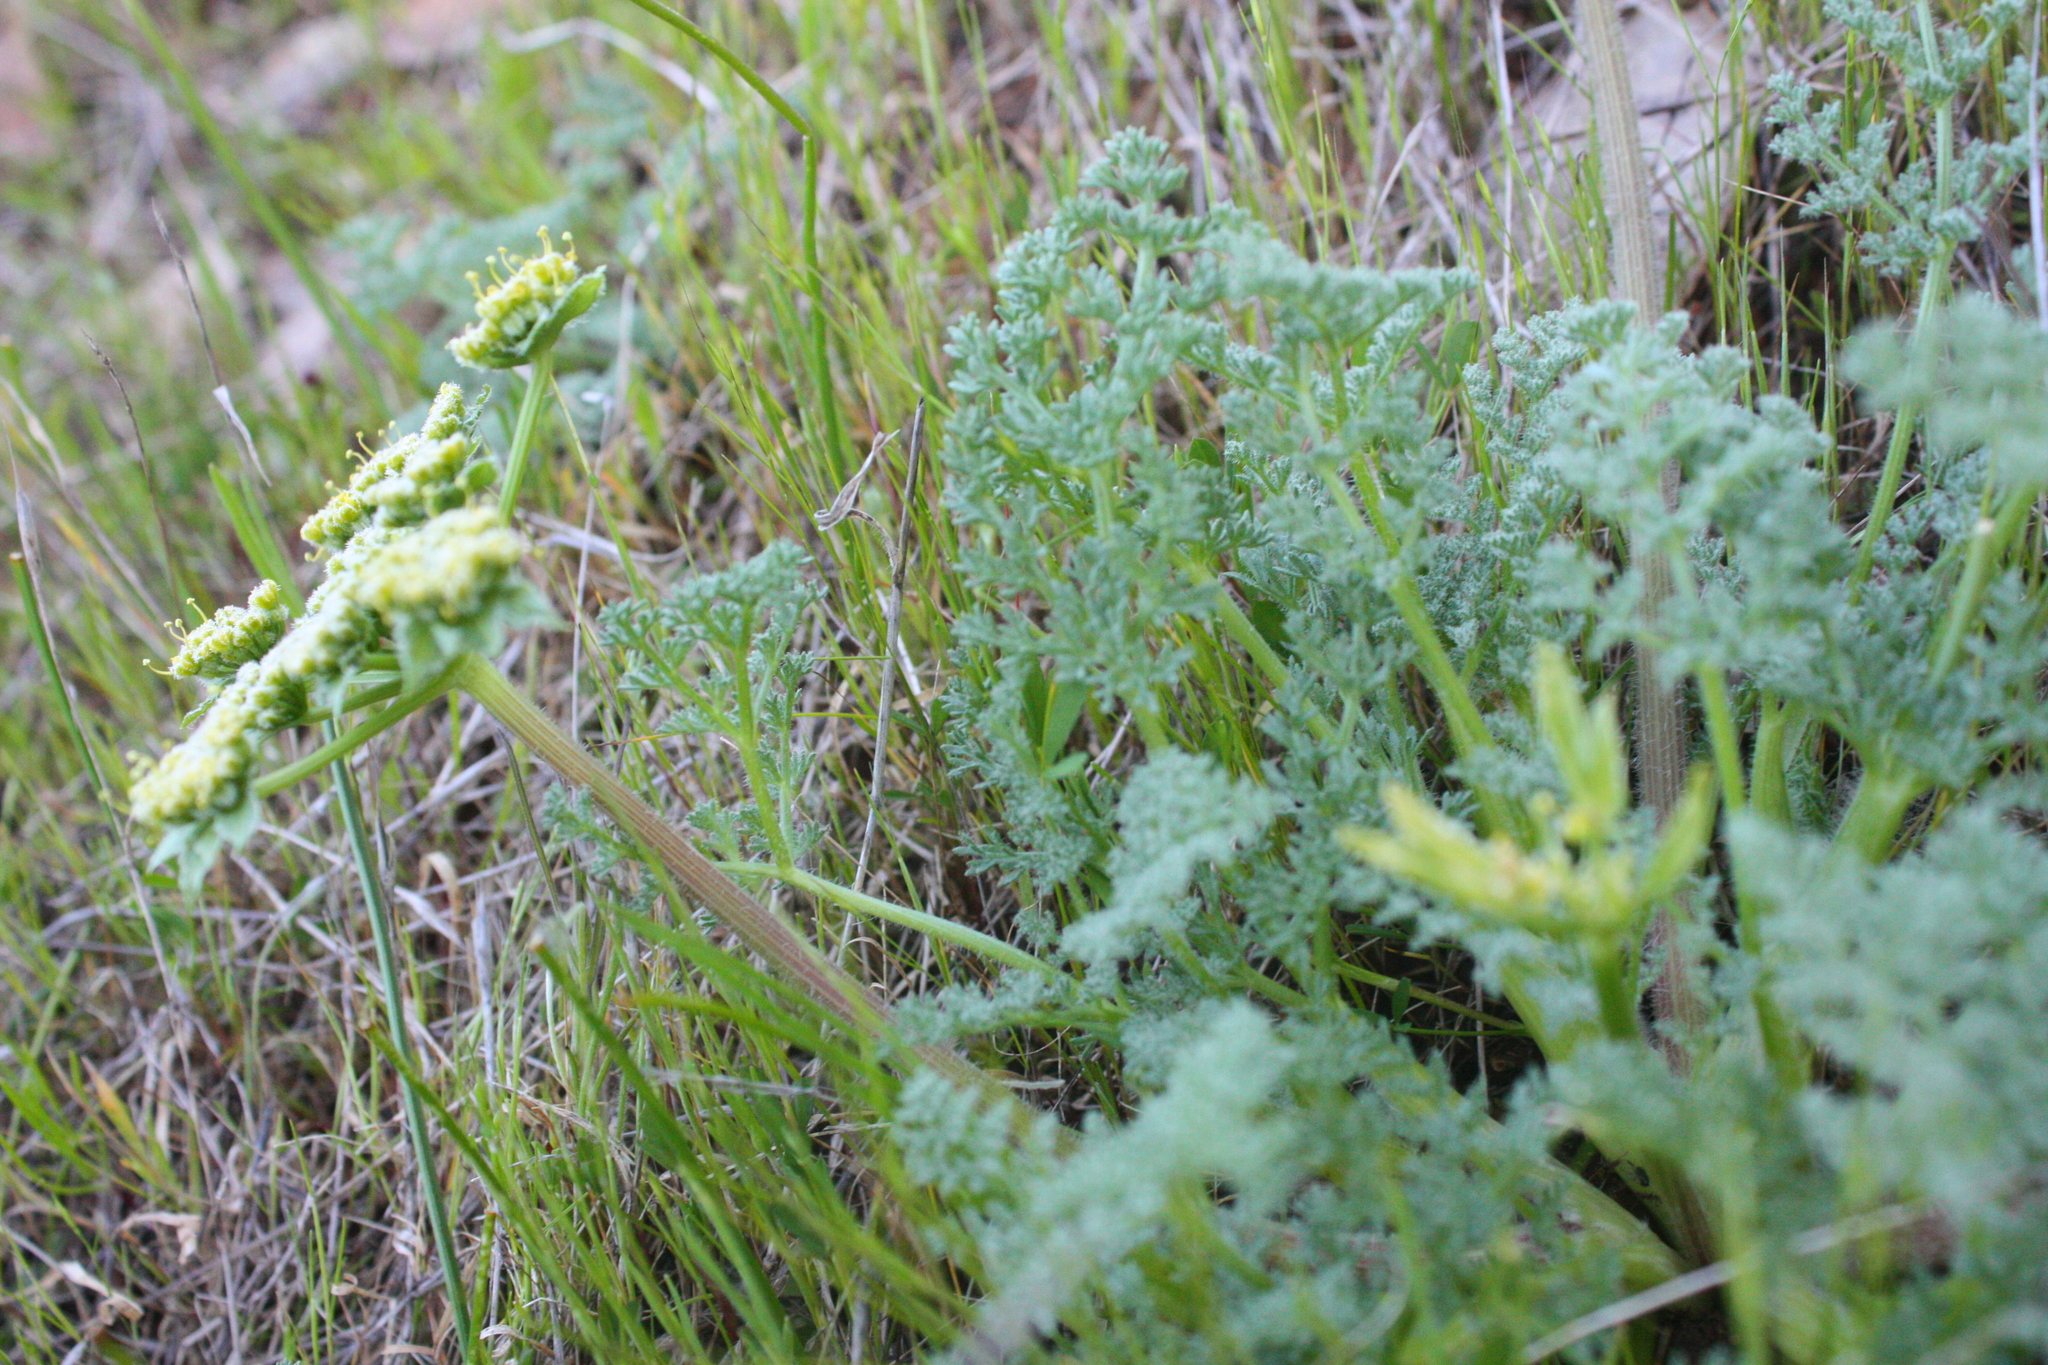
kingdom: Plantae
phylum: Tracheophyta
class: Magnoliopsida
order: Apiales
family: Apiaceae
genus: Lomatium
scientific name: Lomatium dasycarpum
